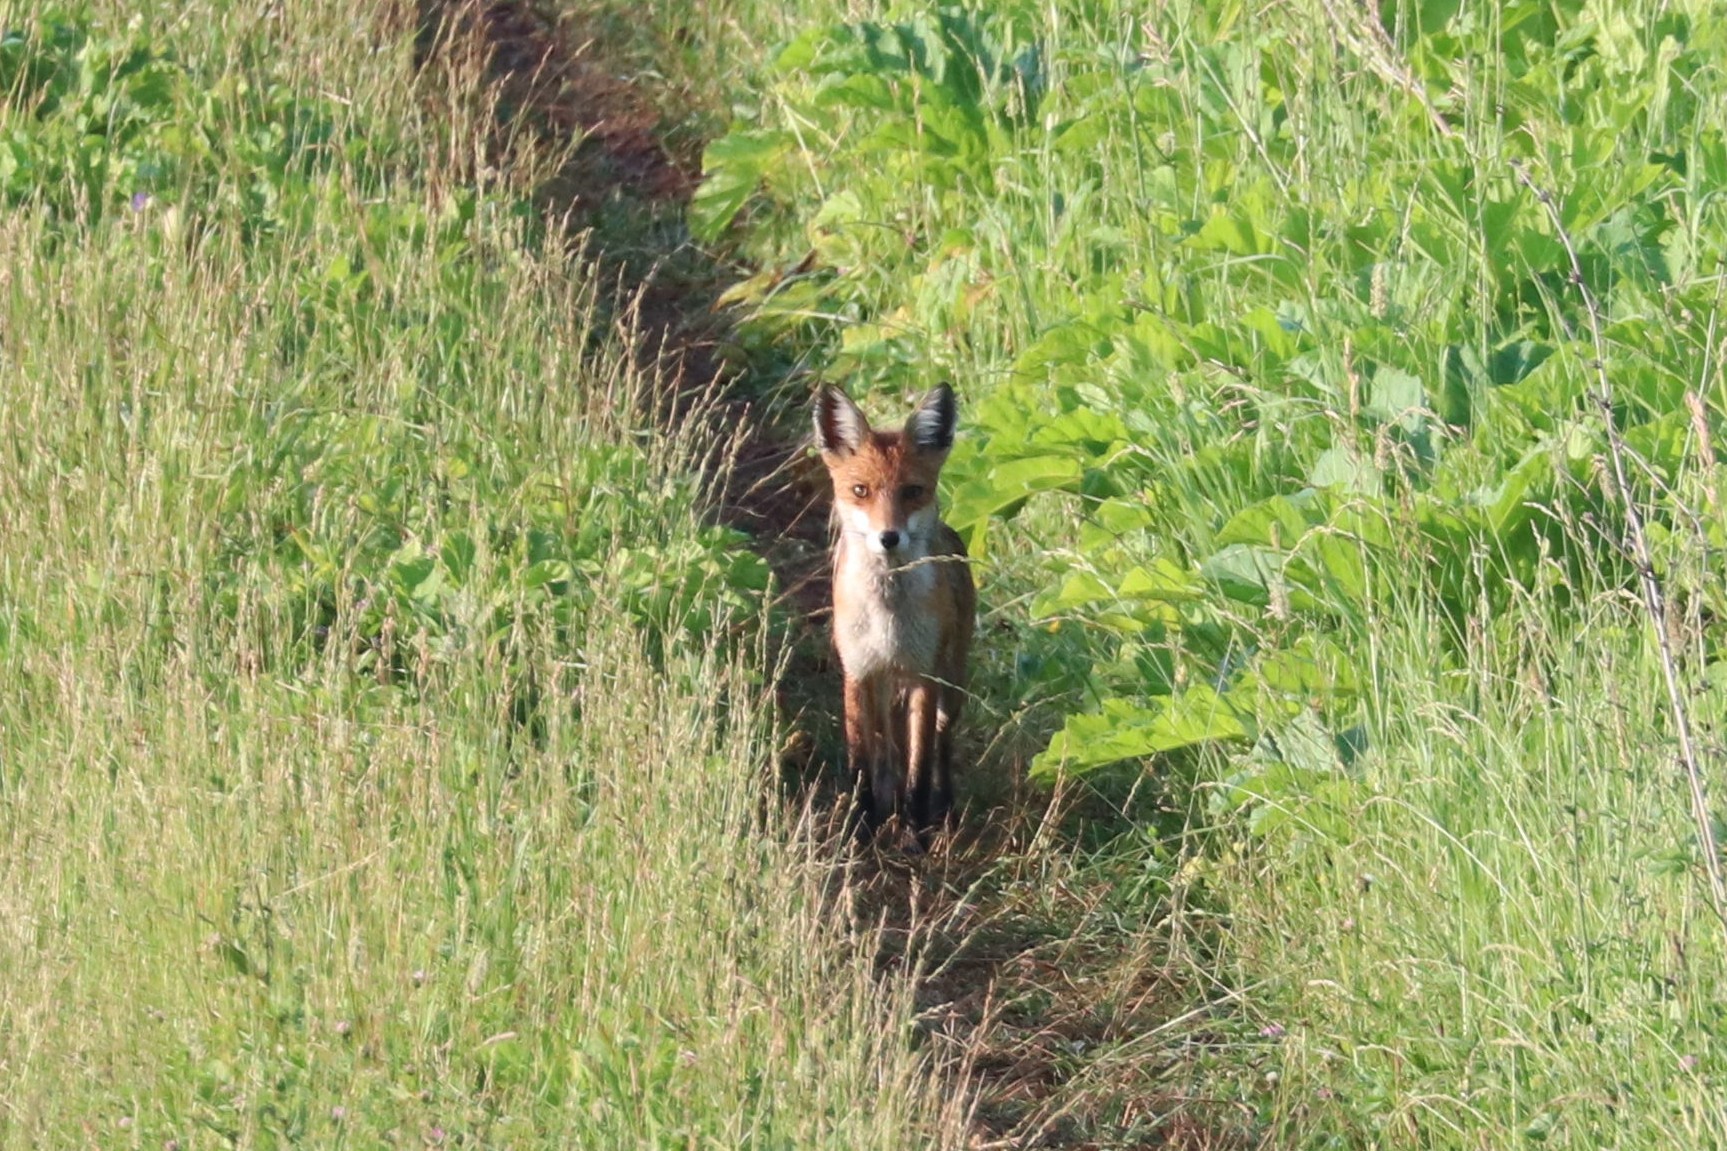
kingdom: Animalia
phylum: Chordata
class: Mammalia
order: Carnivora
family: Canidae
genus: Vulpes
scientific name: Vulpes vulpes
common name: Red fox
